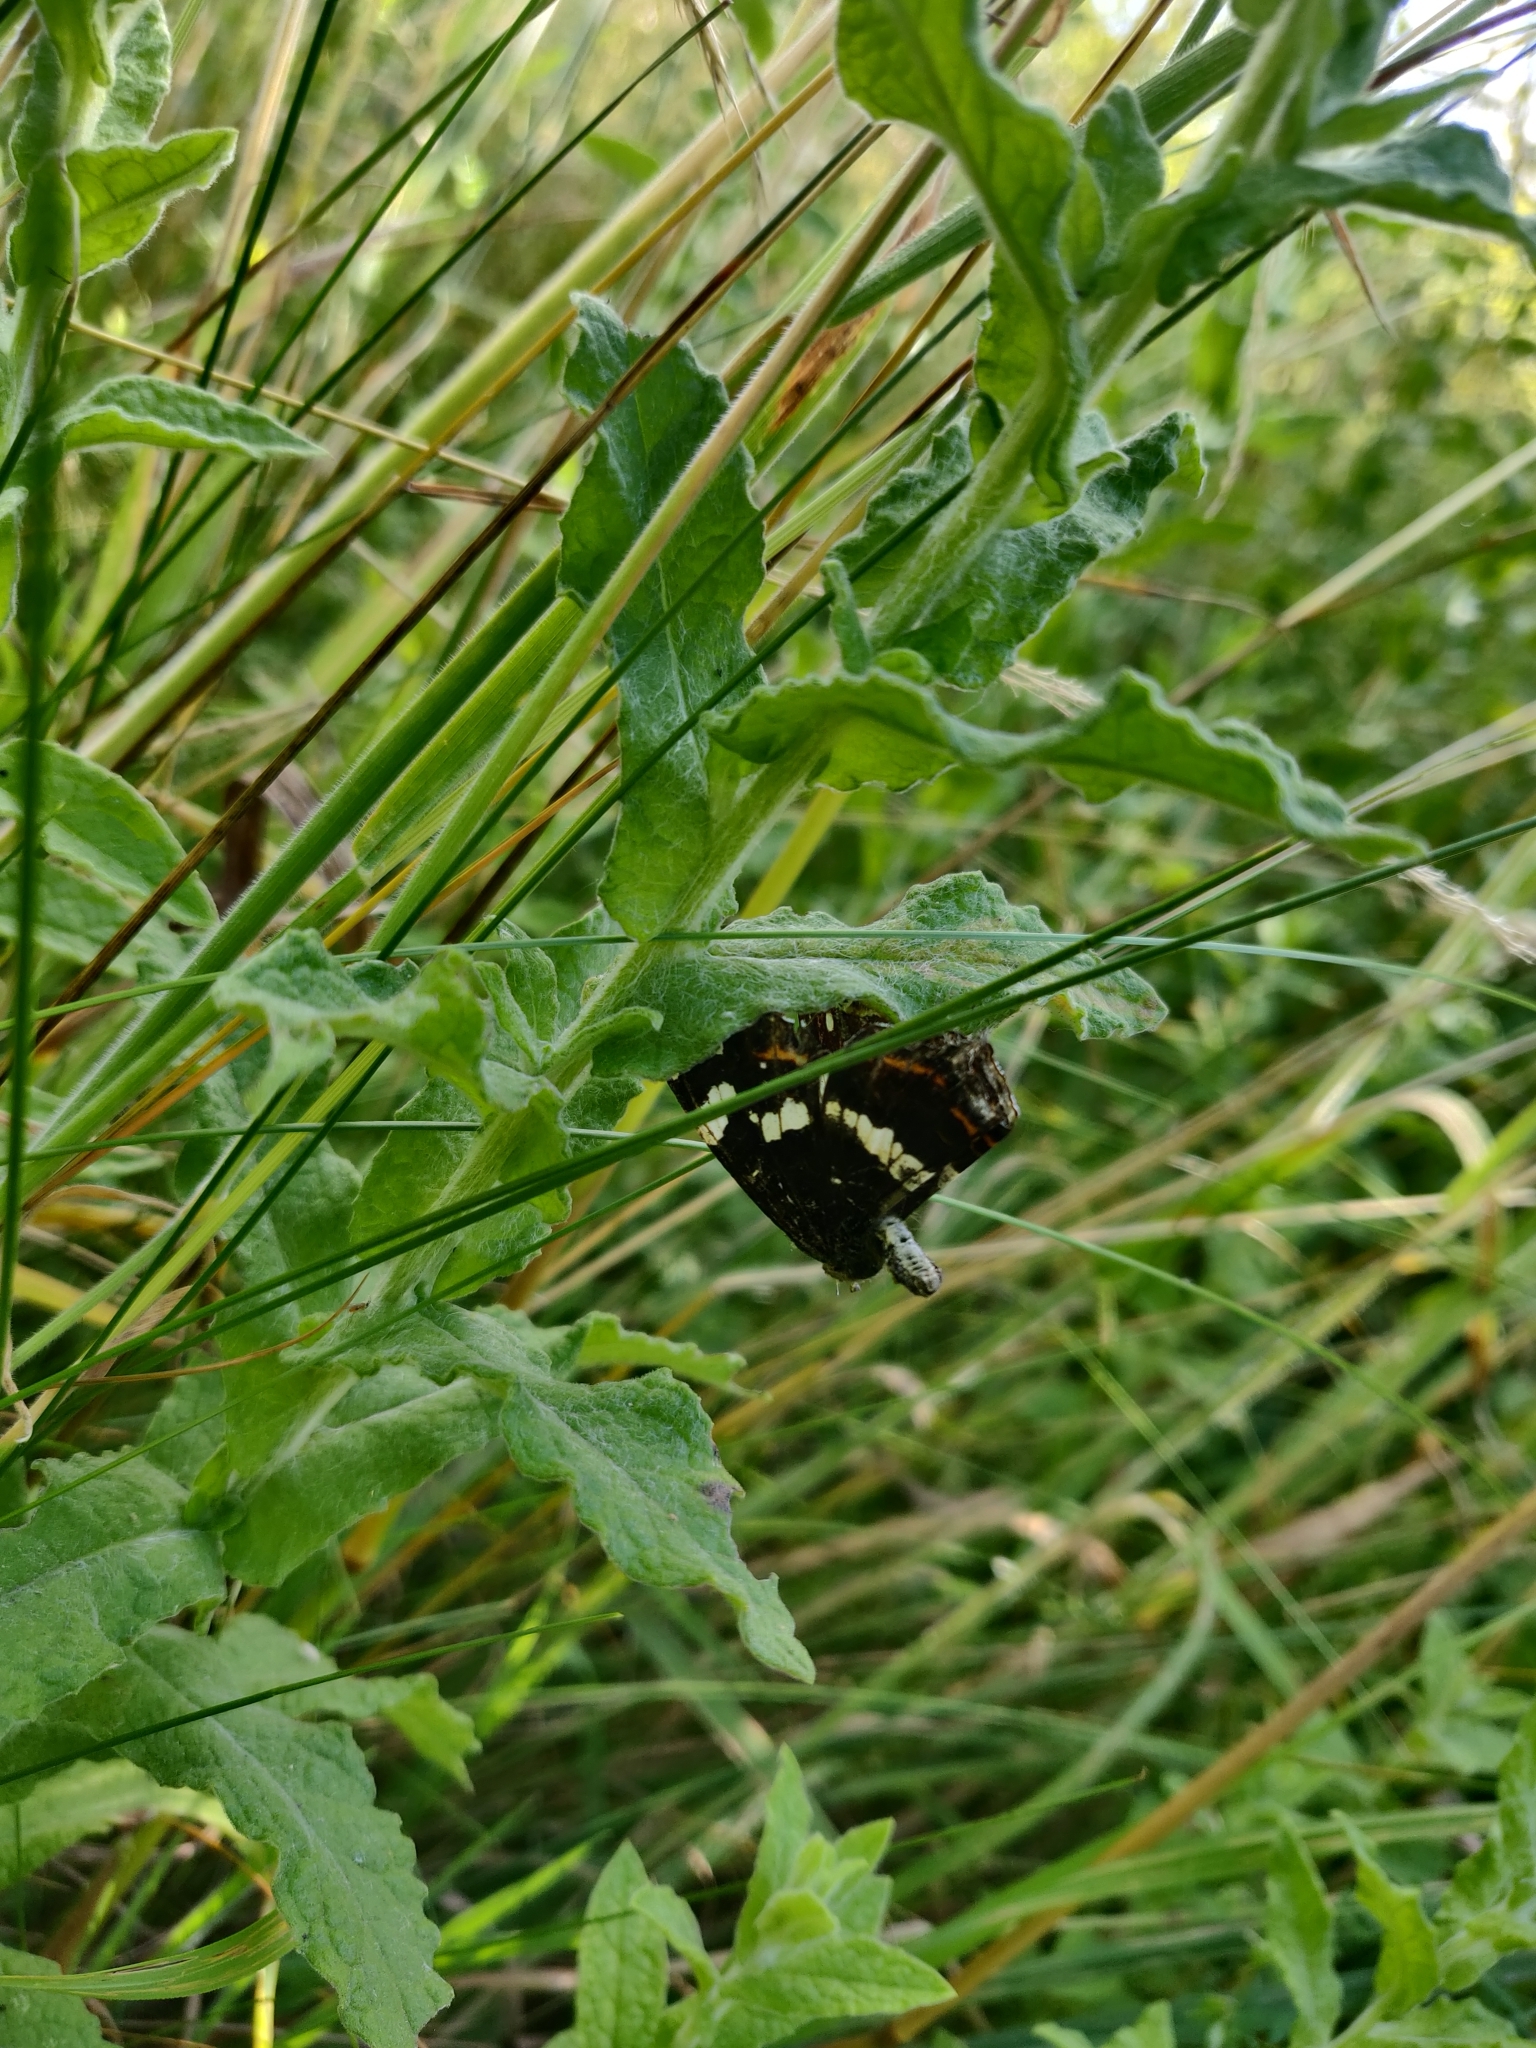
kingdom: Animalia
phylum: Arthropoda
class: Insecta
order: Lepidoptera
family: Nymphalidae
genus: Araschnia
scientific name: Araschnia levana
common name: Map butterfly
